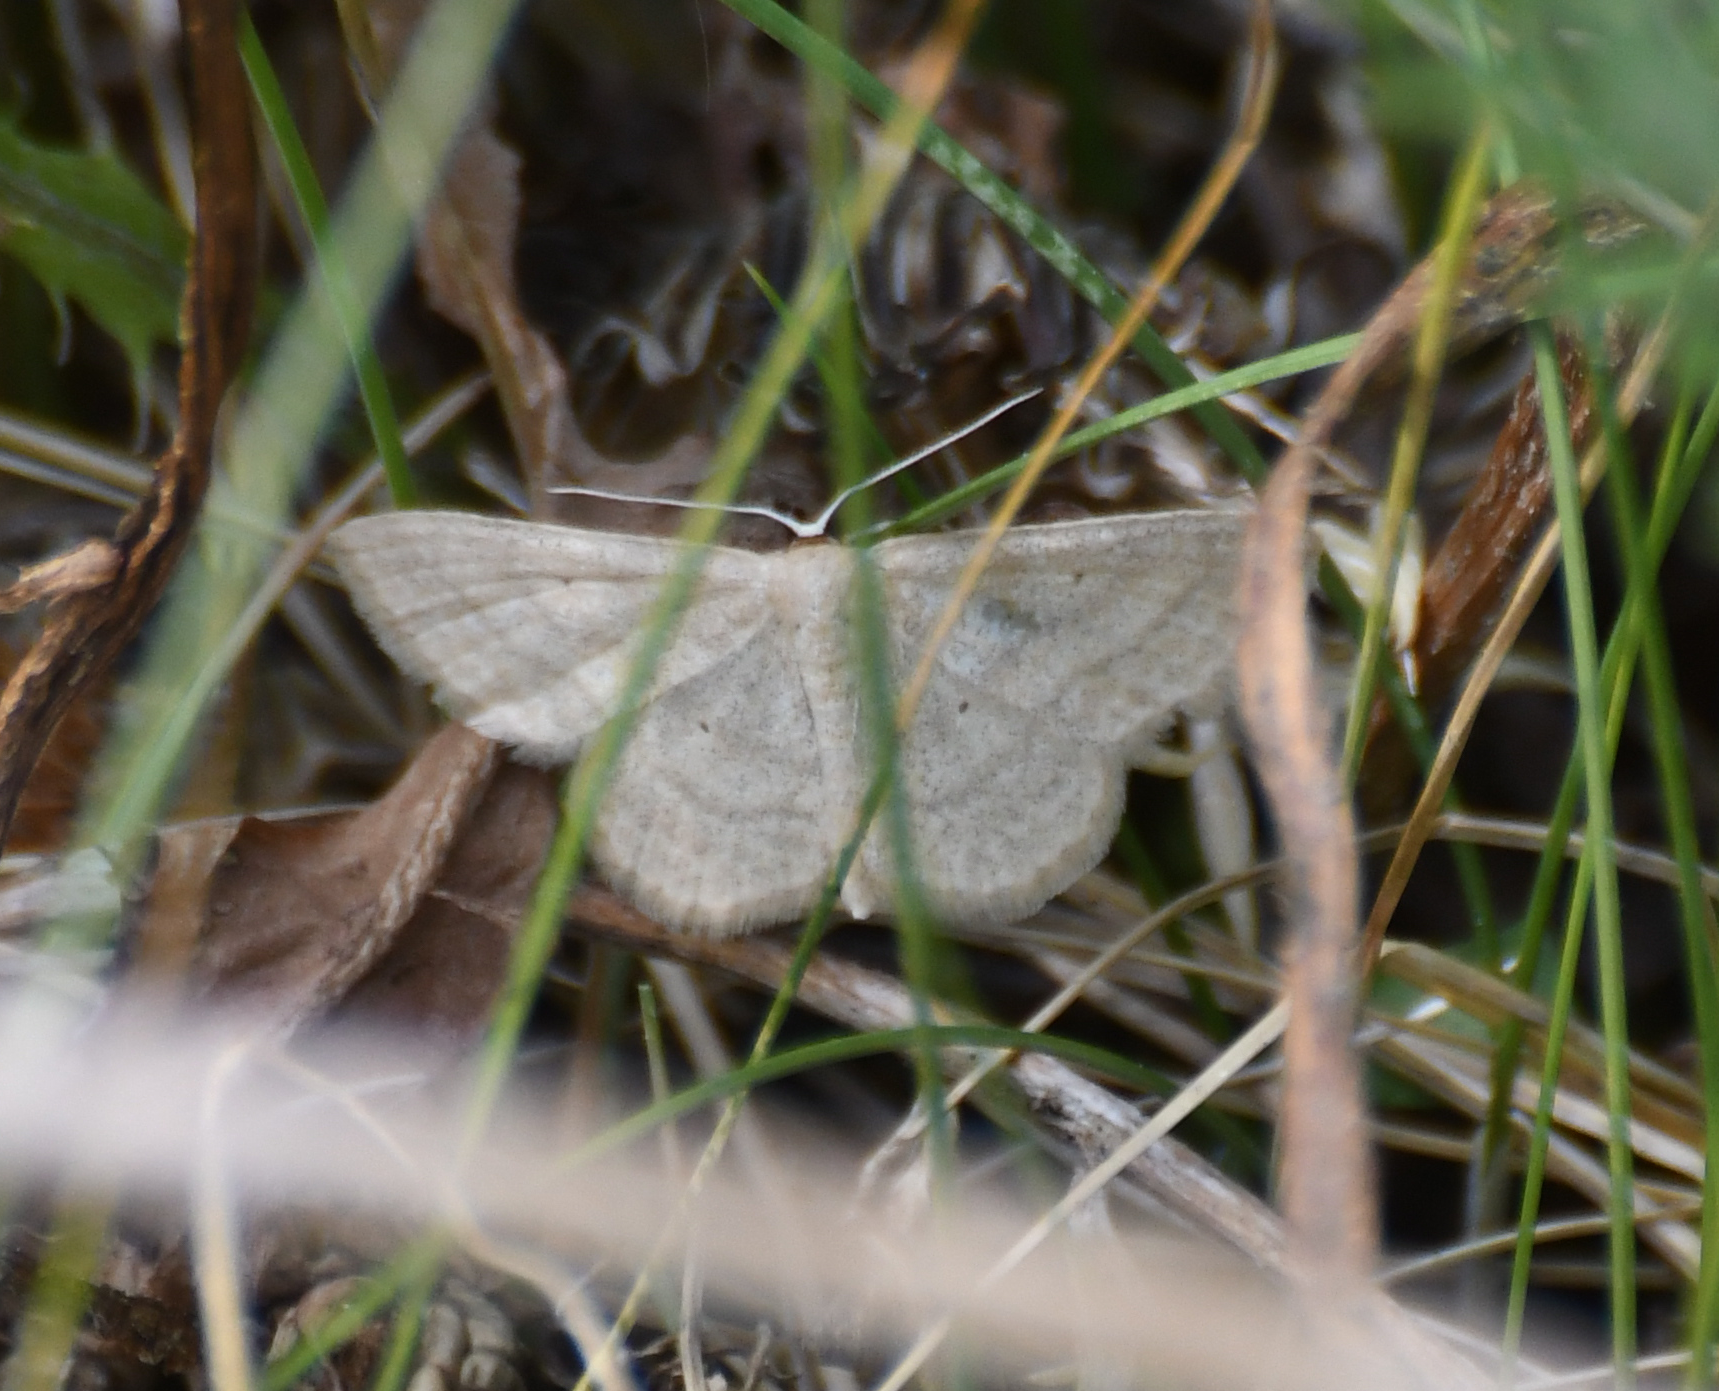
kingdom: Animalia
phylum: Arthropoda
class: Insecta
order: Lepidoptera
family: Geometridae
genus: Scopula
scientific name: Scopula inductata
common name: Soft-lined wave
